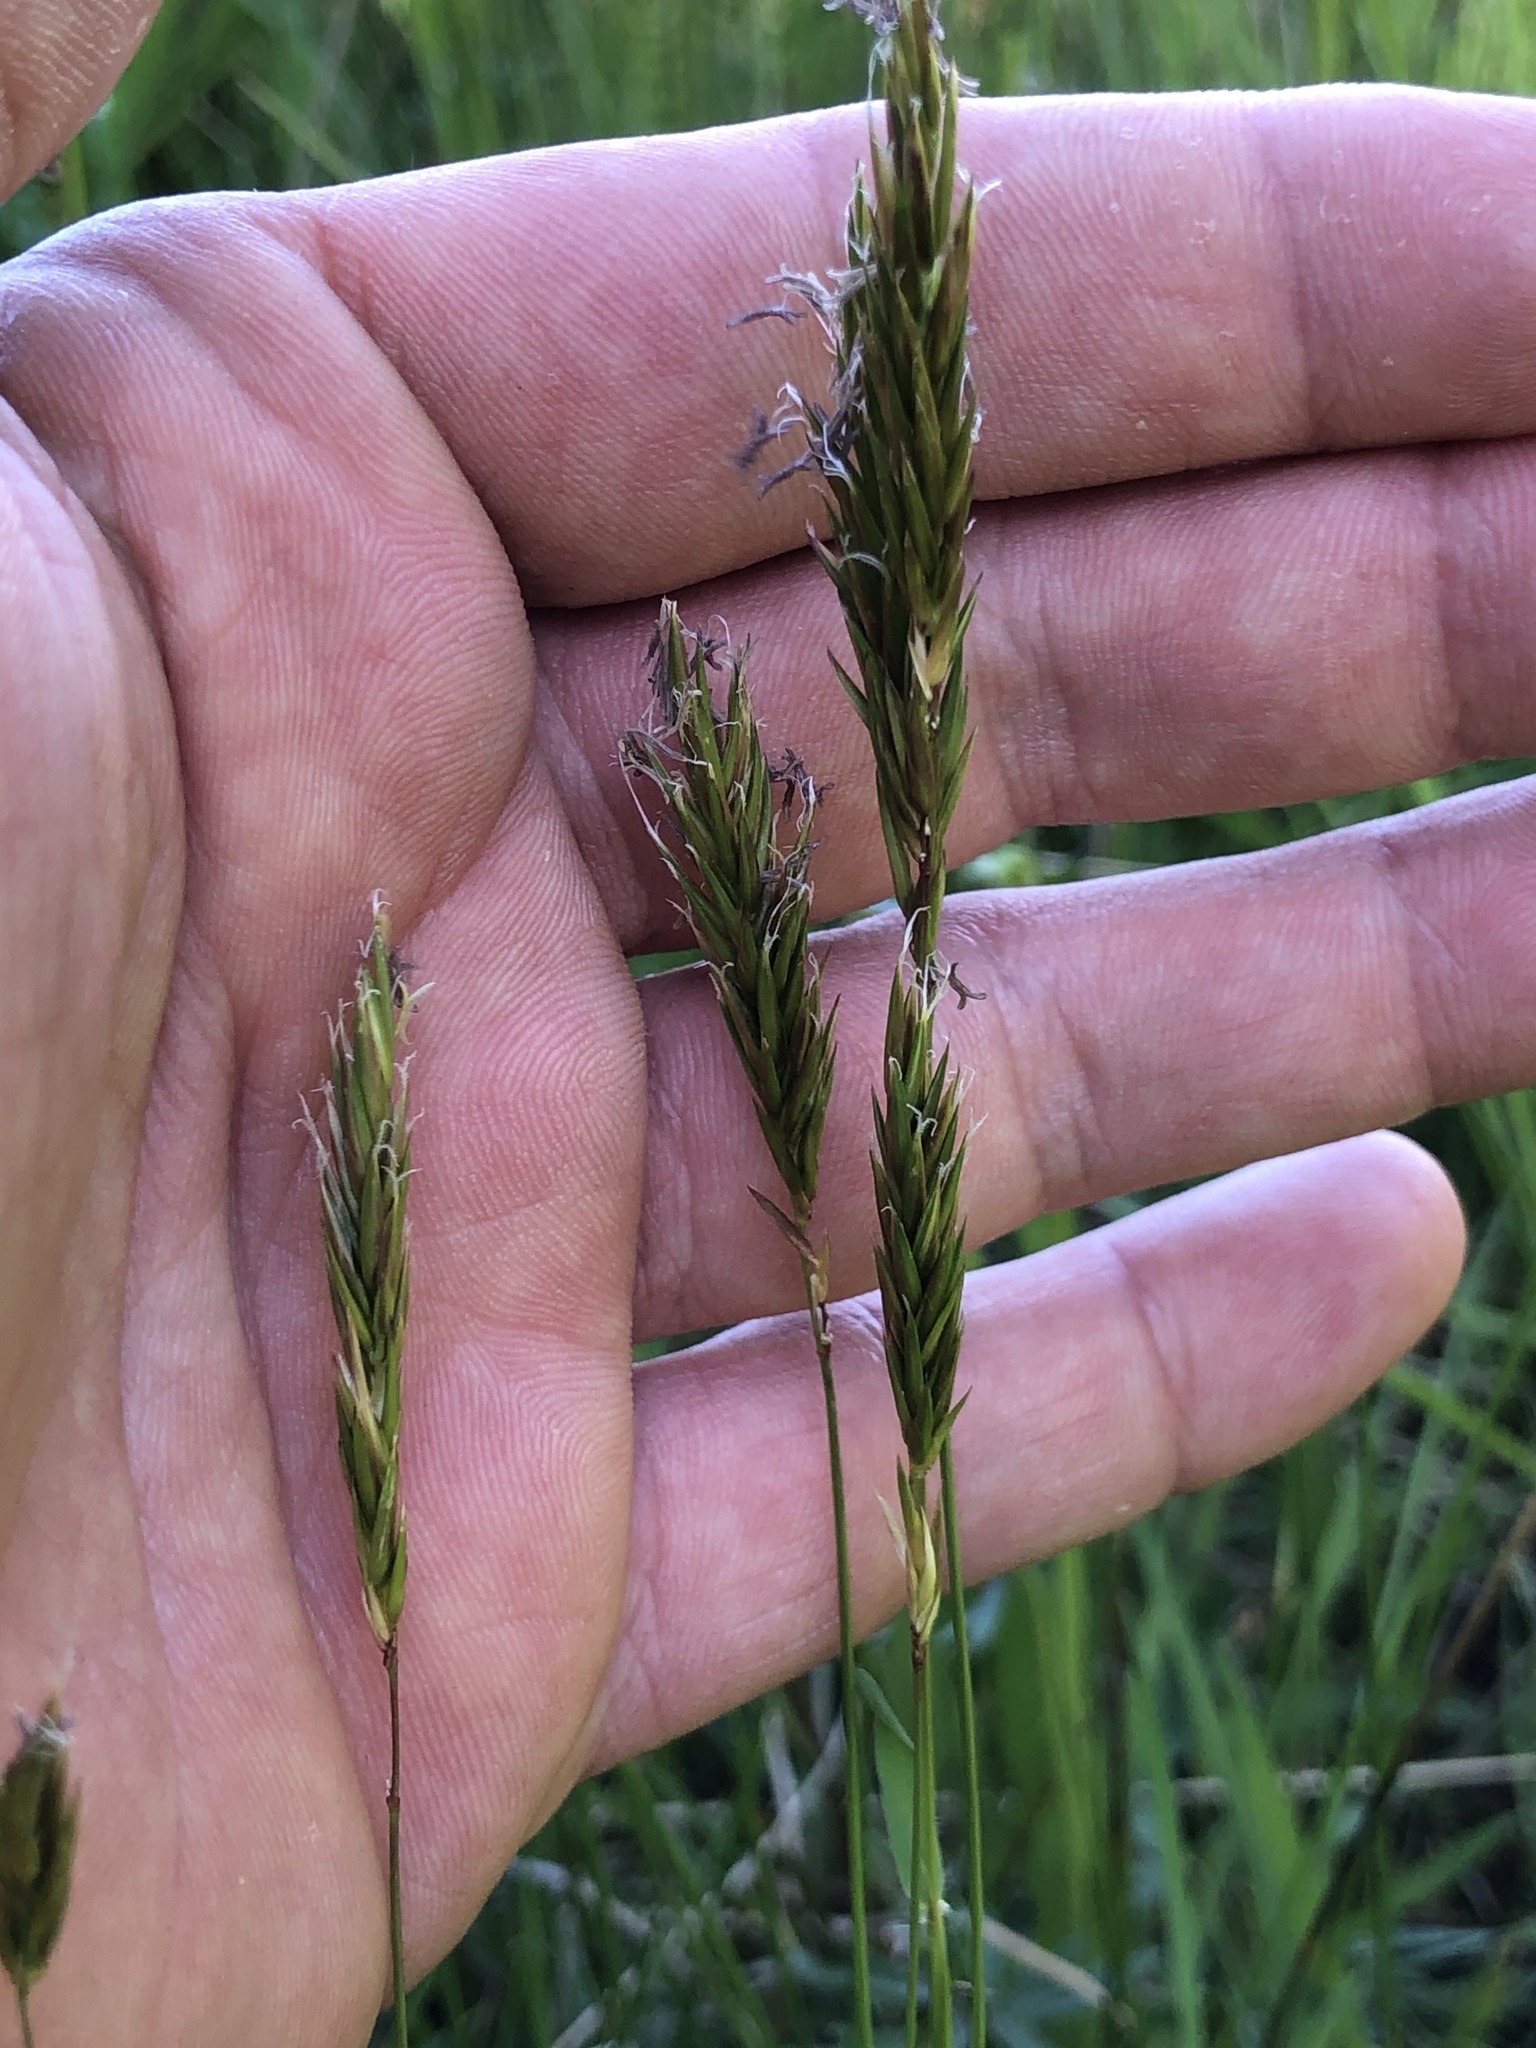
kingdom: Plantae
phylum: Tracheophyta
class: Liliopsida
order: Poales
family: Poaceae
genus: Anthoxanthum
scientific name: Anthoxanthum odoratum
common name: Sweet vernalgrass
